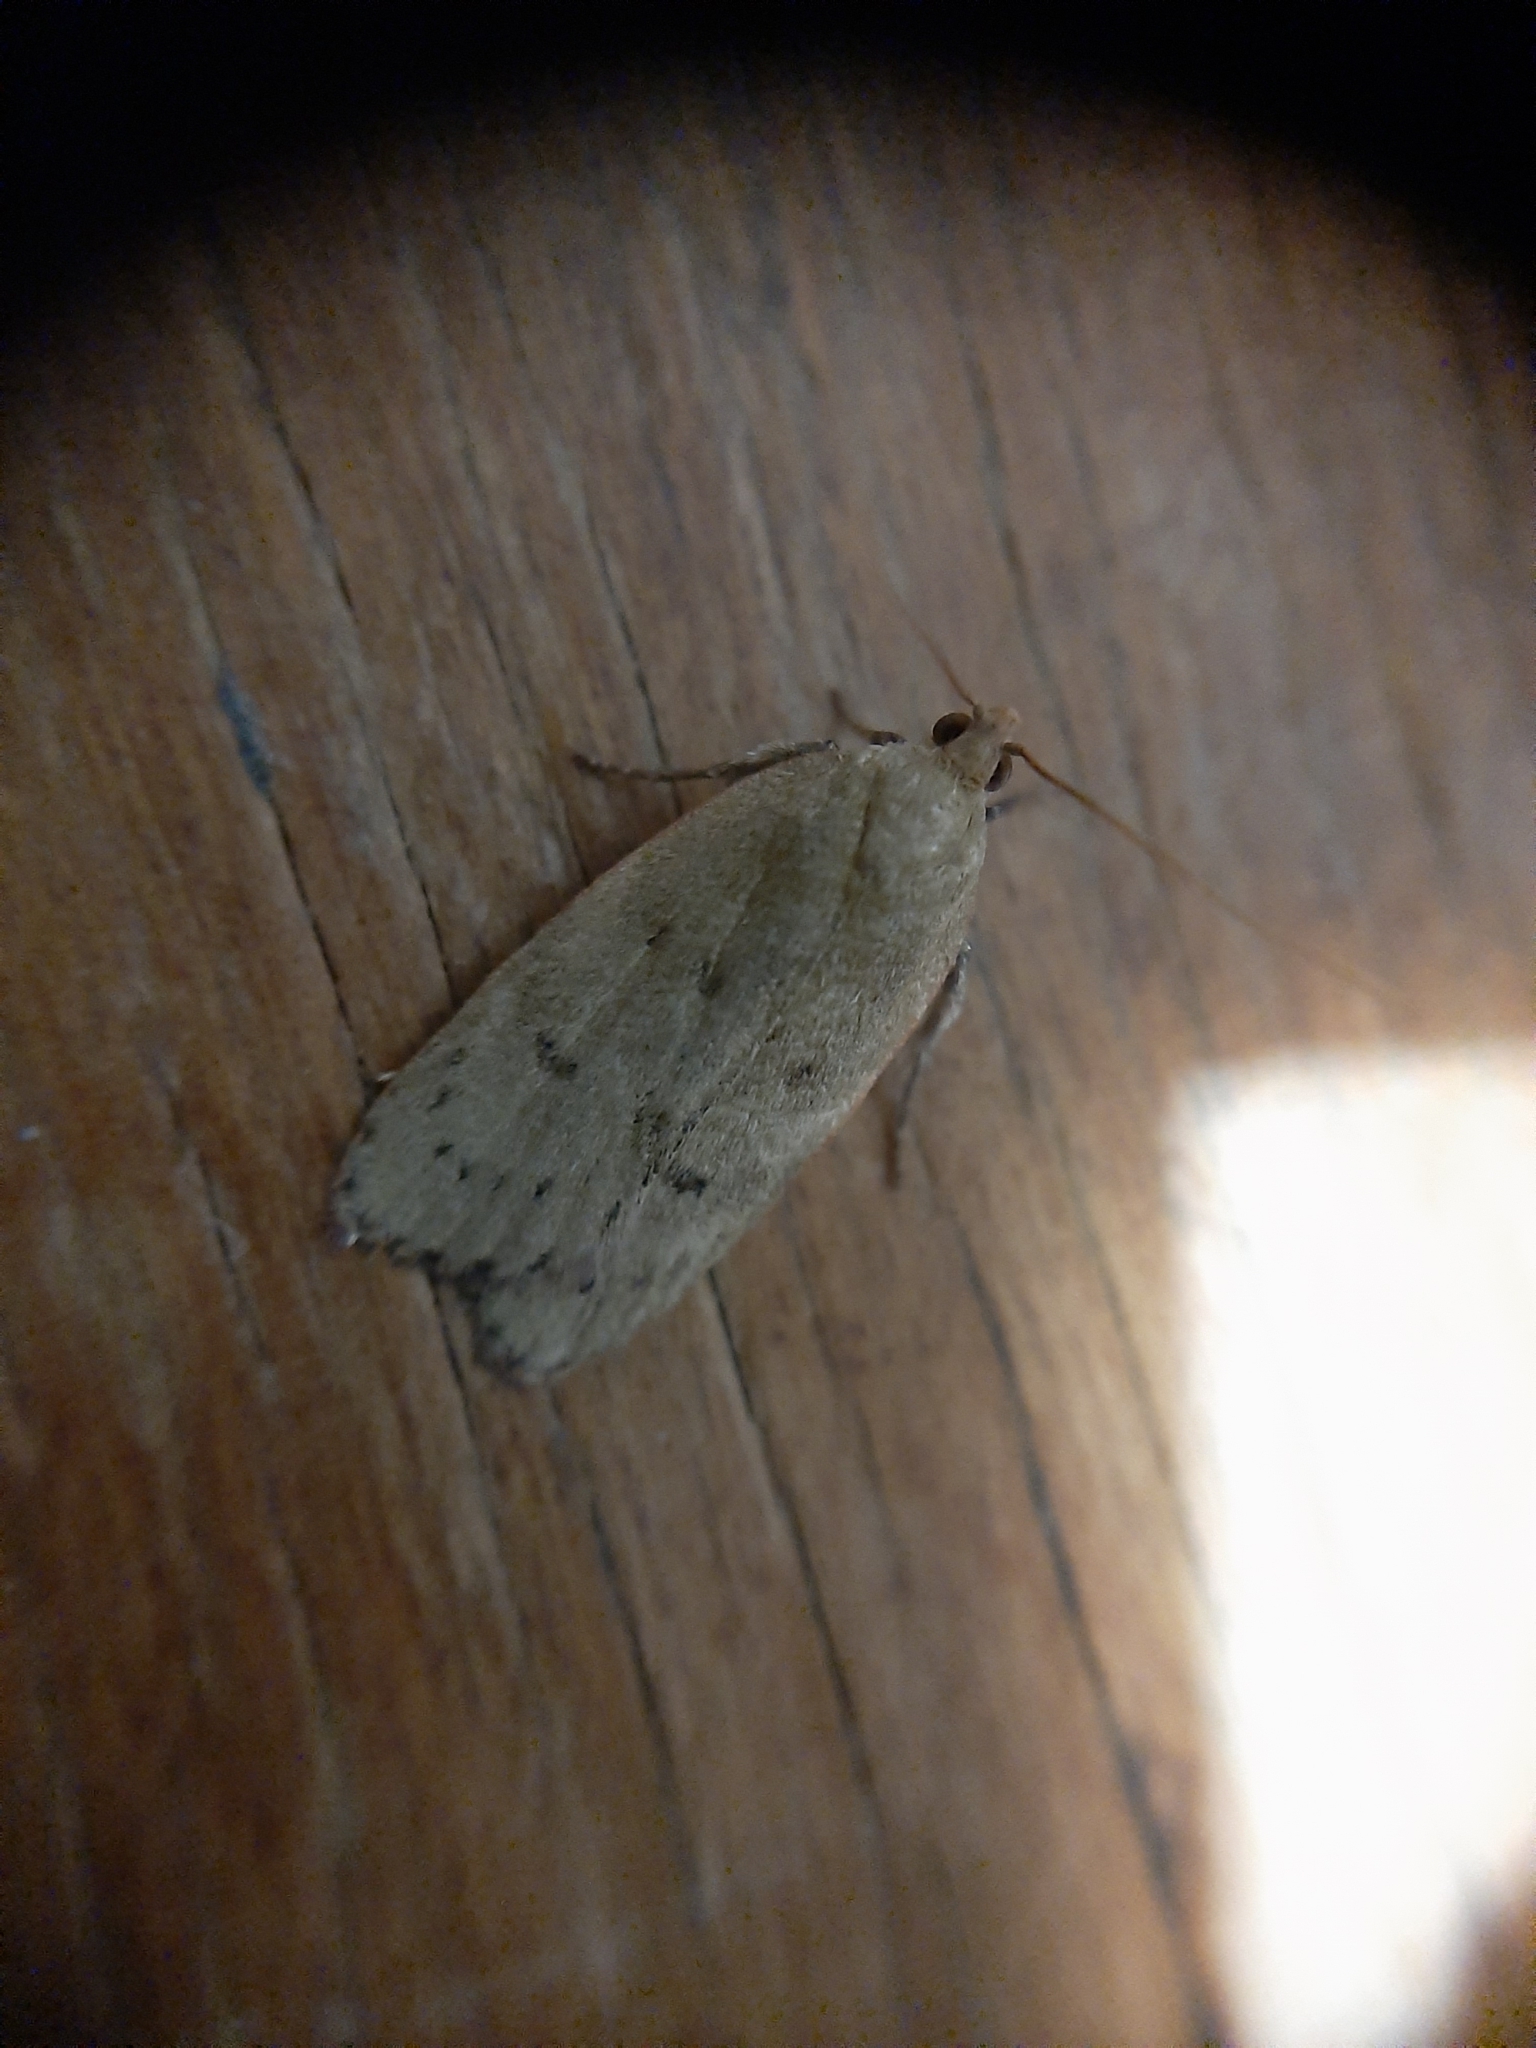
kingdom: Animalia
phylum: Arthropoda
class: Insecta
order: Lepidoptera
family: Depressariidae
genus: Phaeosaces
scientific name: Phaeosaces coarctatella
